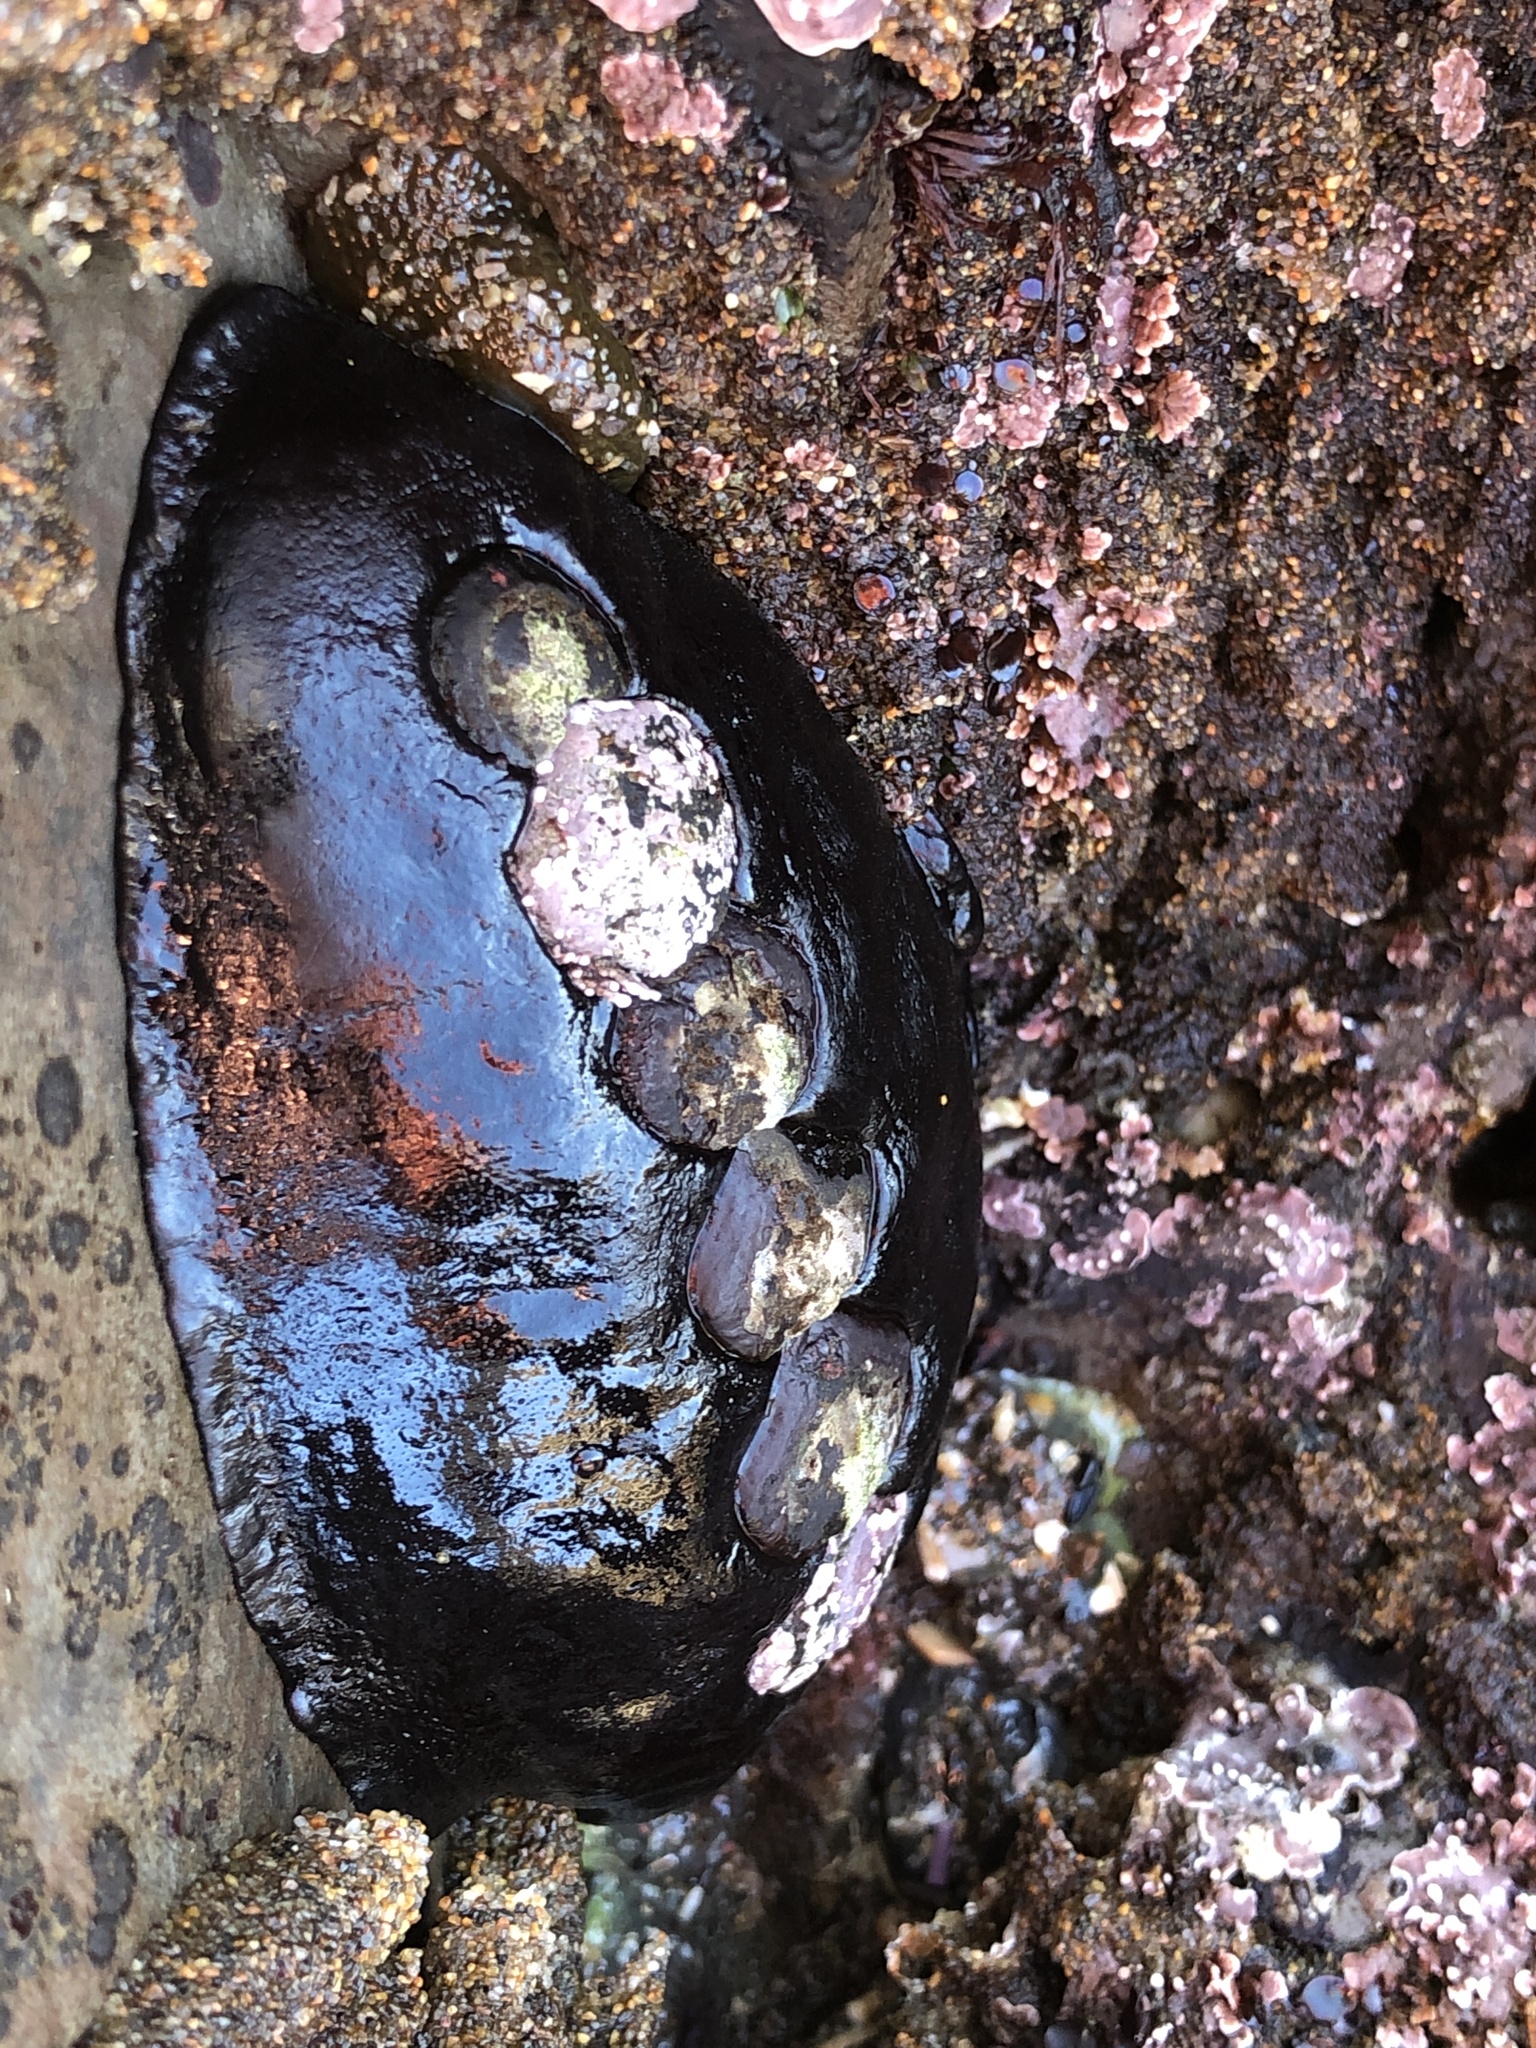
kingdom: Animalia
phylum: Mollusca
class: Polyplacophora
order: Chitonida
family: Mopaliidae
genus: Katharina
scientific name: Katharina tunicata
